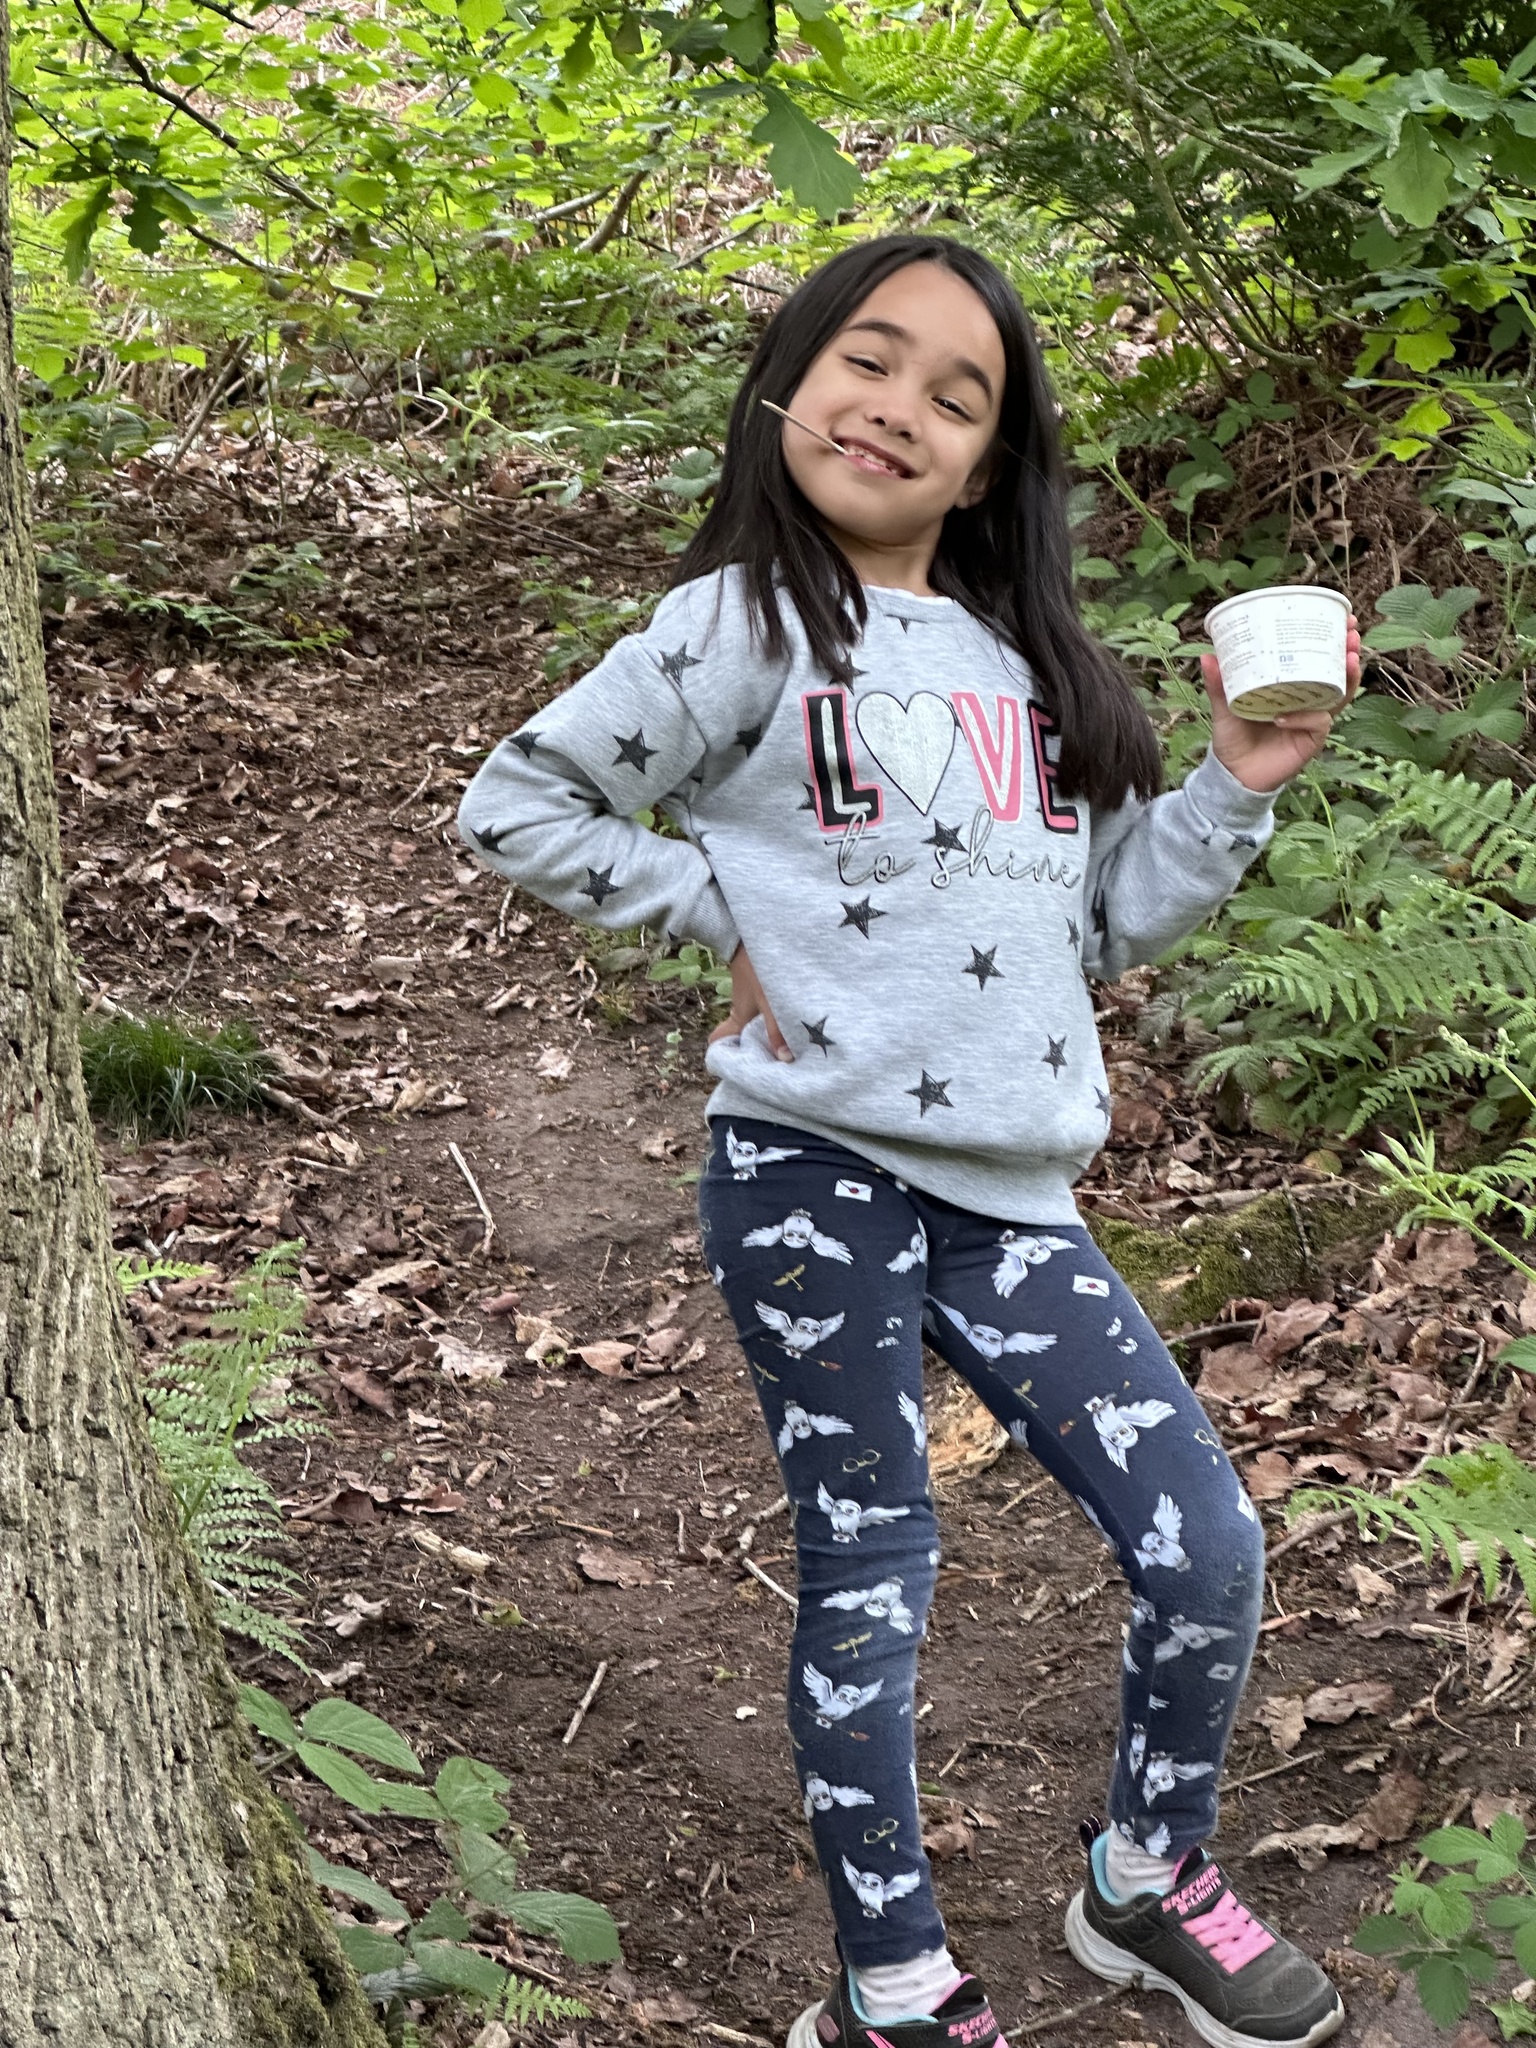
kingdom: Plantae
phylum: Tracheophyta
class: Magnoliopsida
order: Ranunculales
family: Papaveraceae
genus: Ceratocapnos
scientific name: Ceratocapnos claviculata
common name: Climbing corydalis
